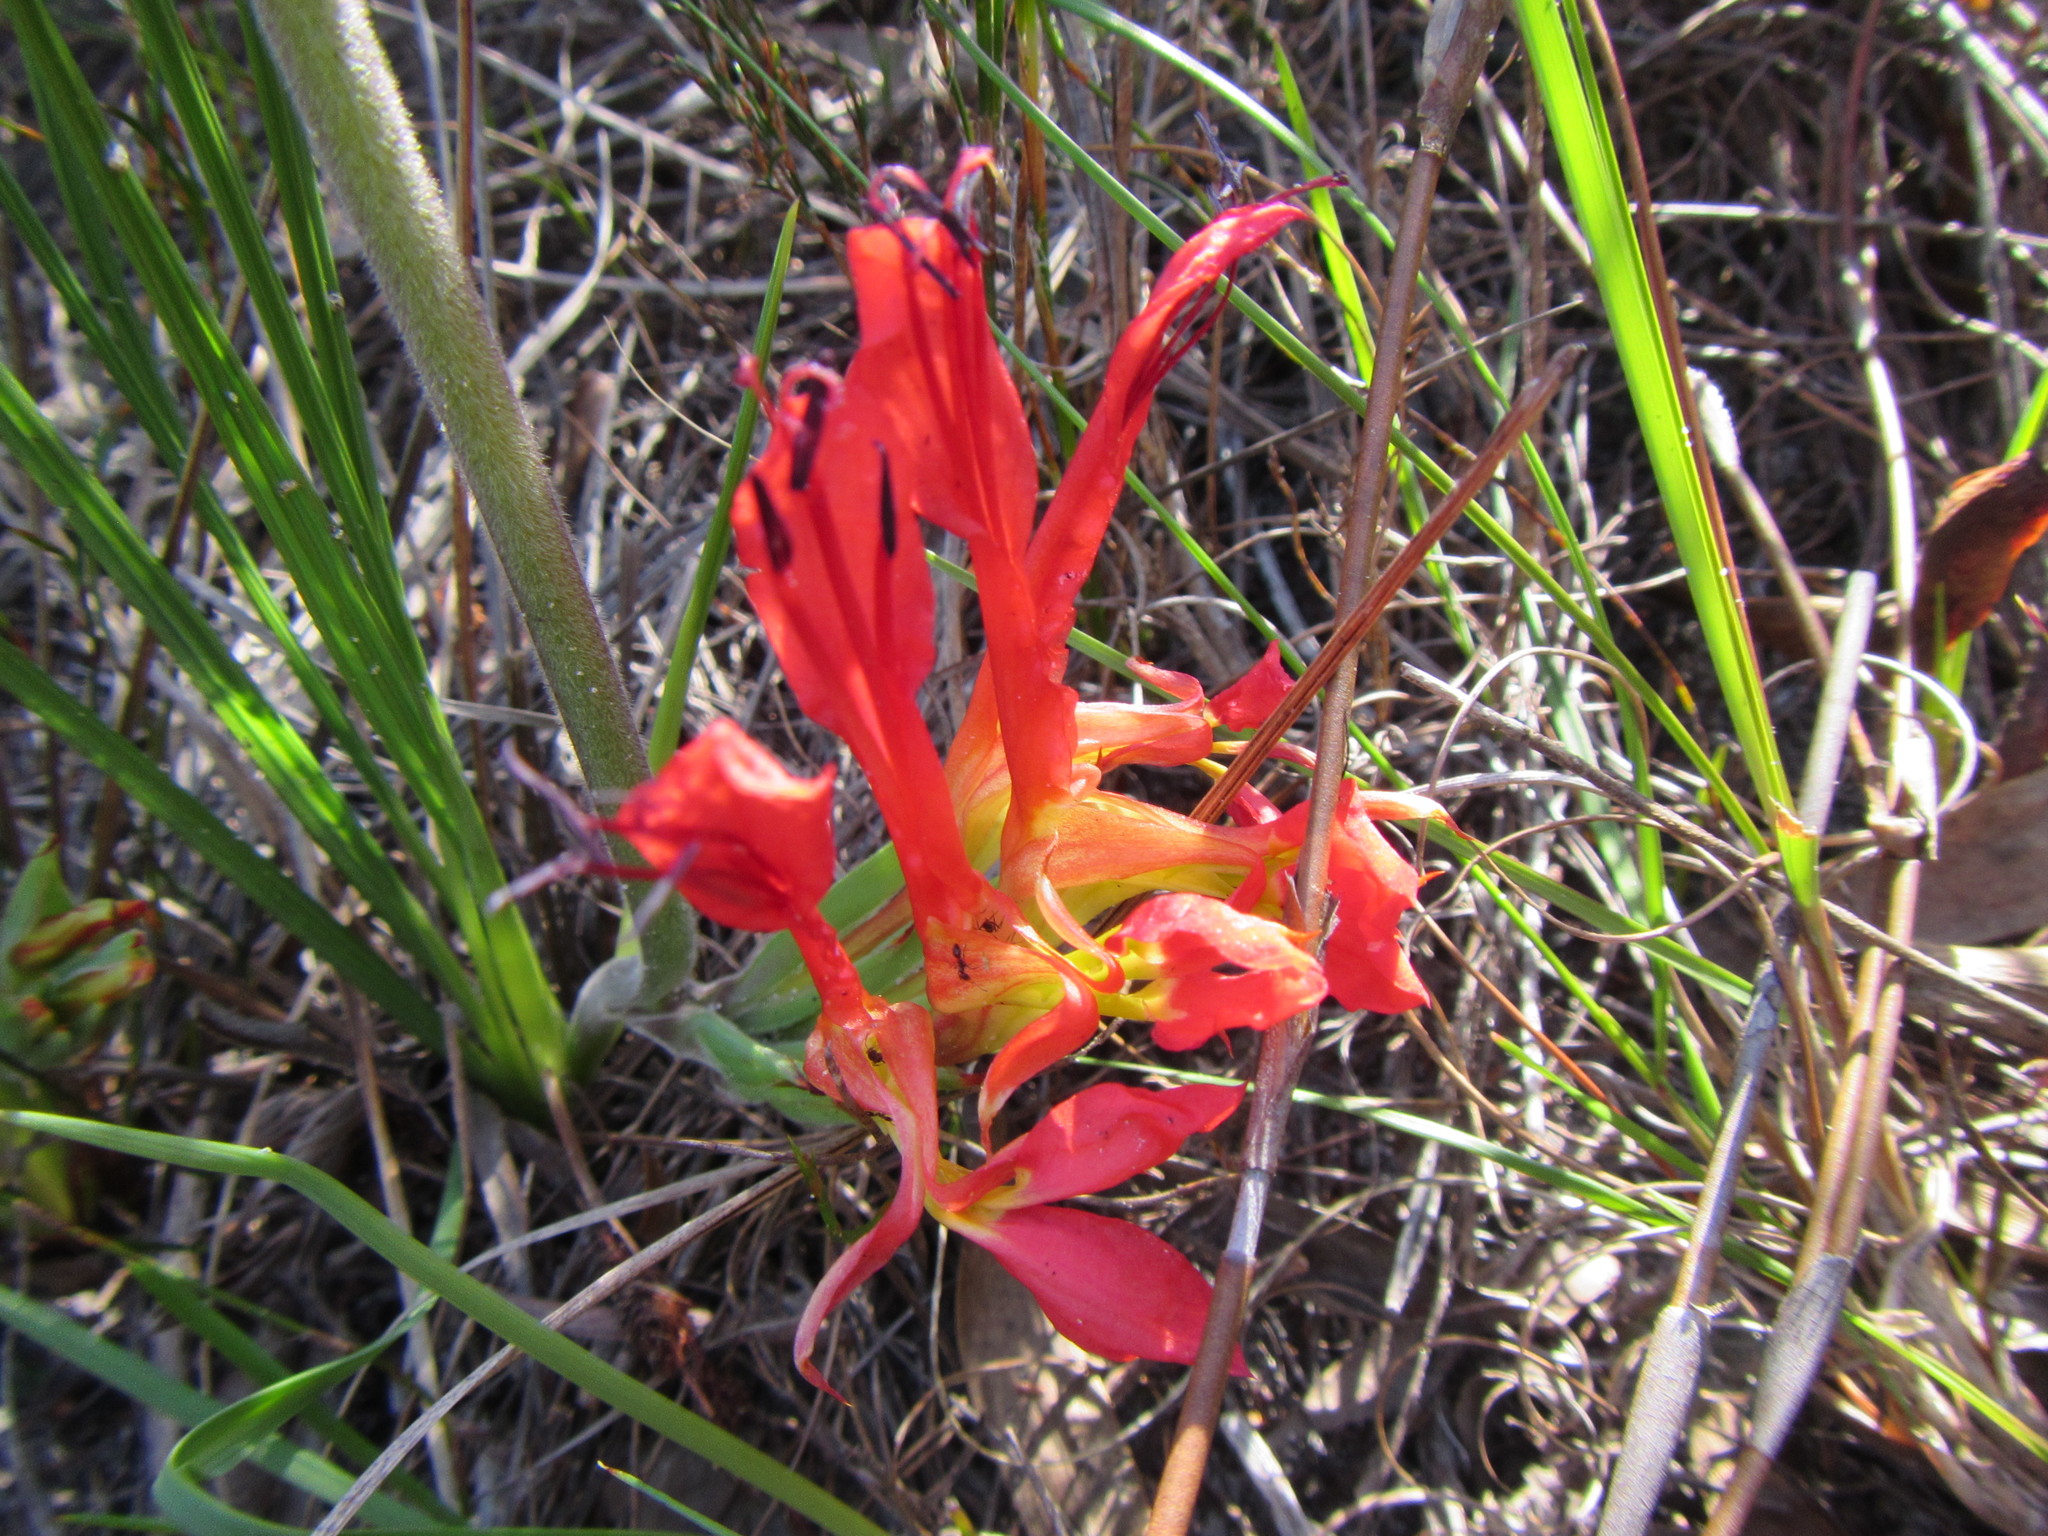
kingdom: Plantae
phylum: Tracheophyta
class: Liliopsida
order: Asparagales
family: Iridaceae
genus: Babiana
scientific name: Babiana ringens
